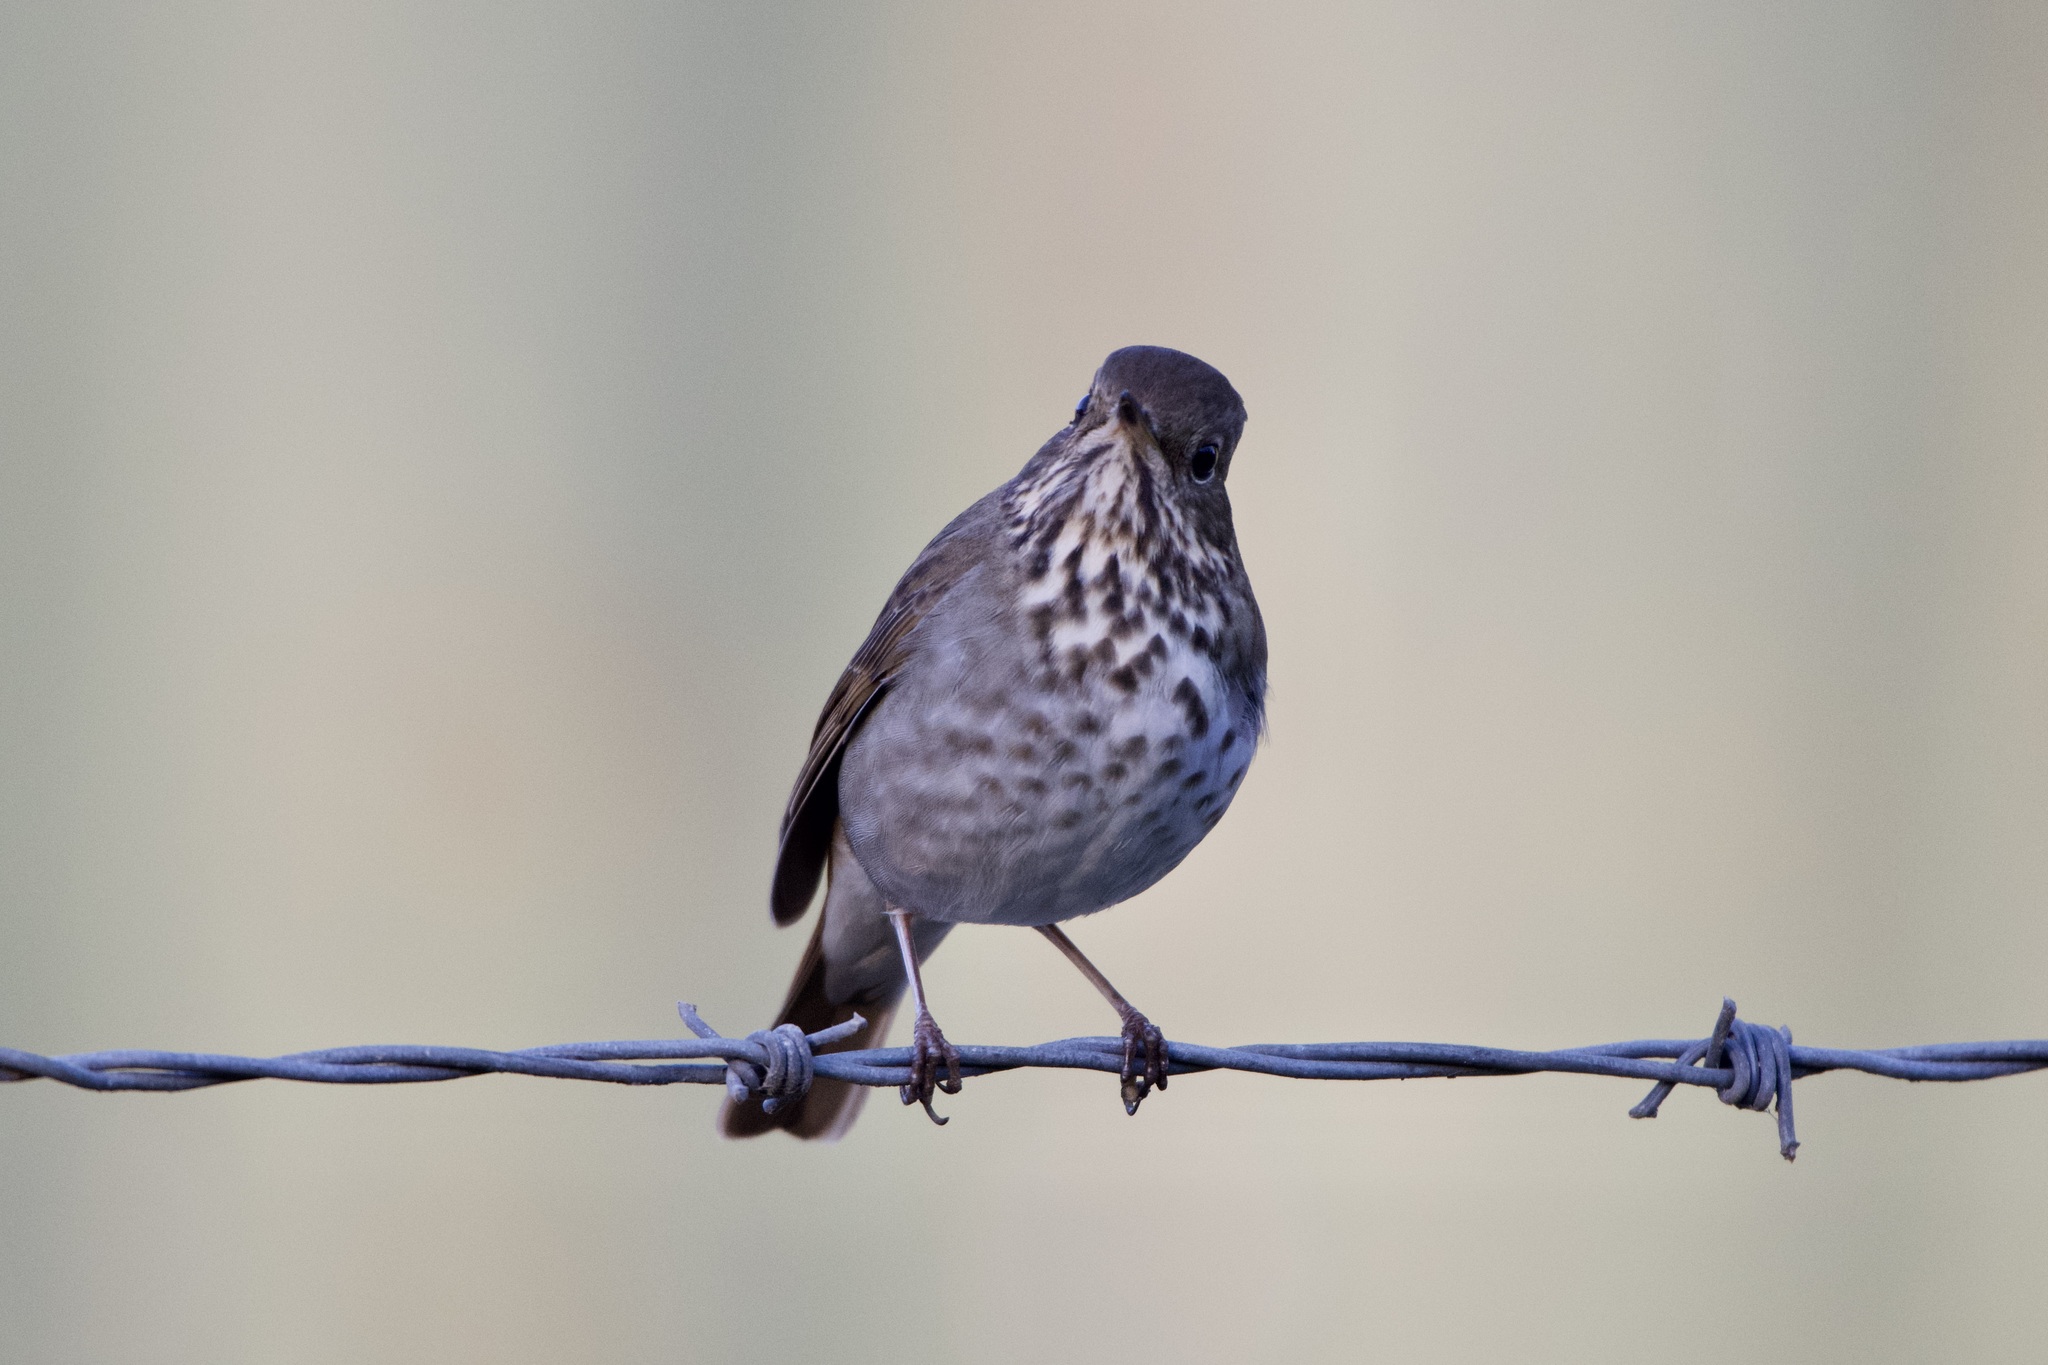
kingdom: Animalia
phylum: Chordata
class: Aves
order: Passeriformes
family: Turdidae
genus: Catharus
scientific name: Catharus guttatus
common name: Hermit thrush
